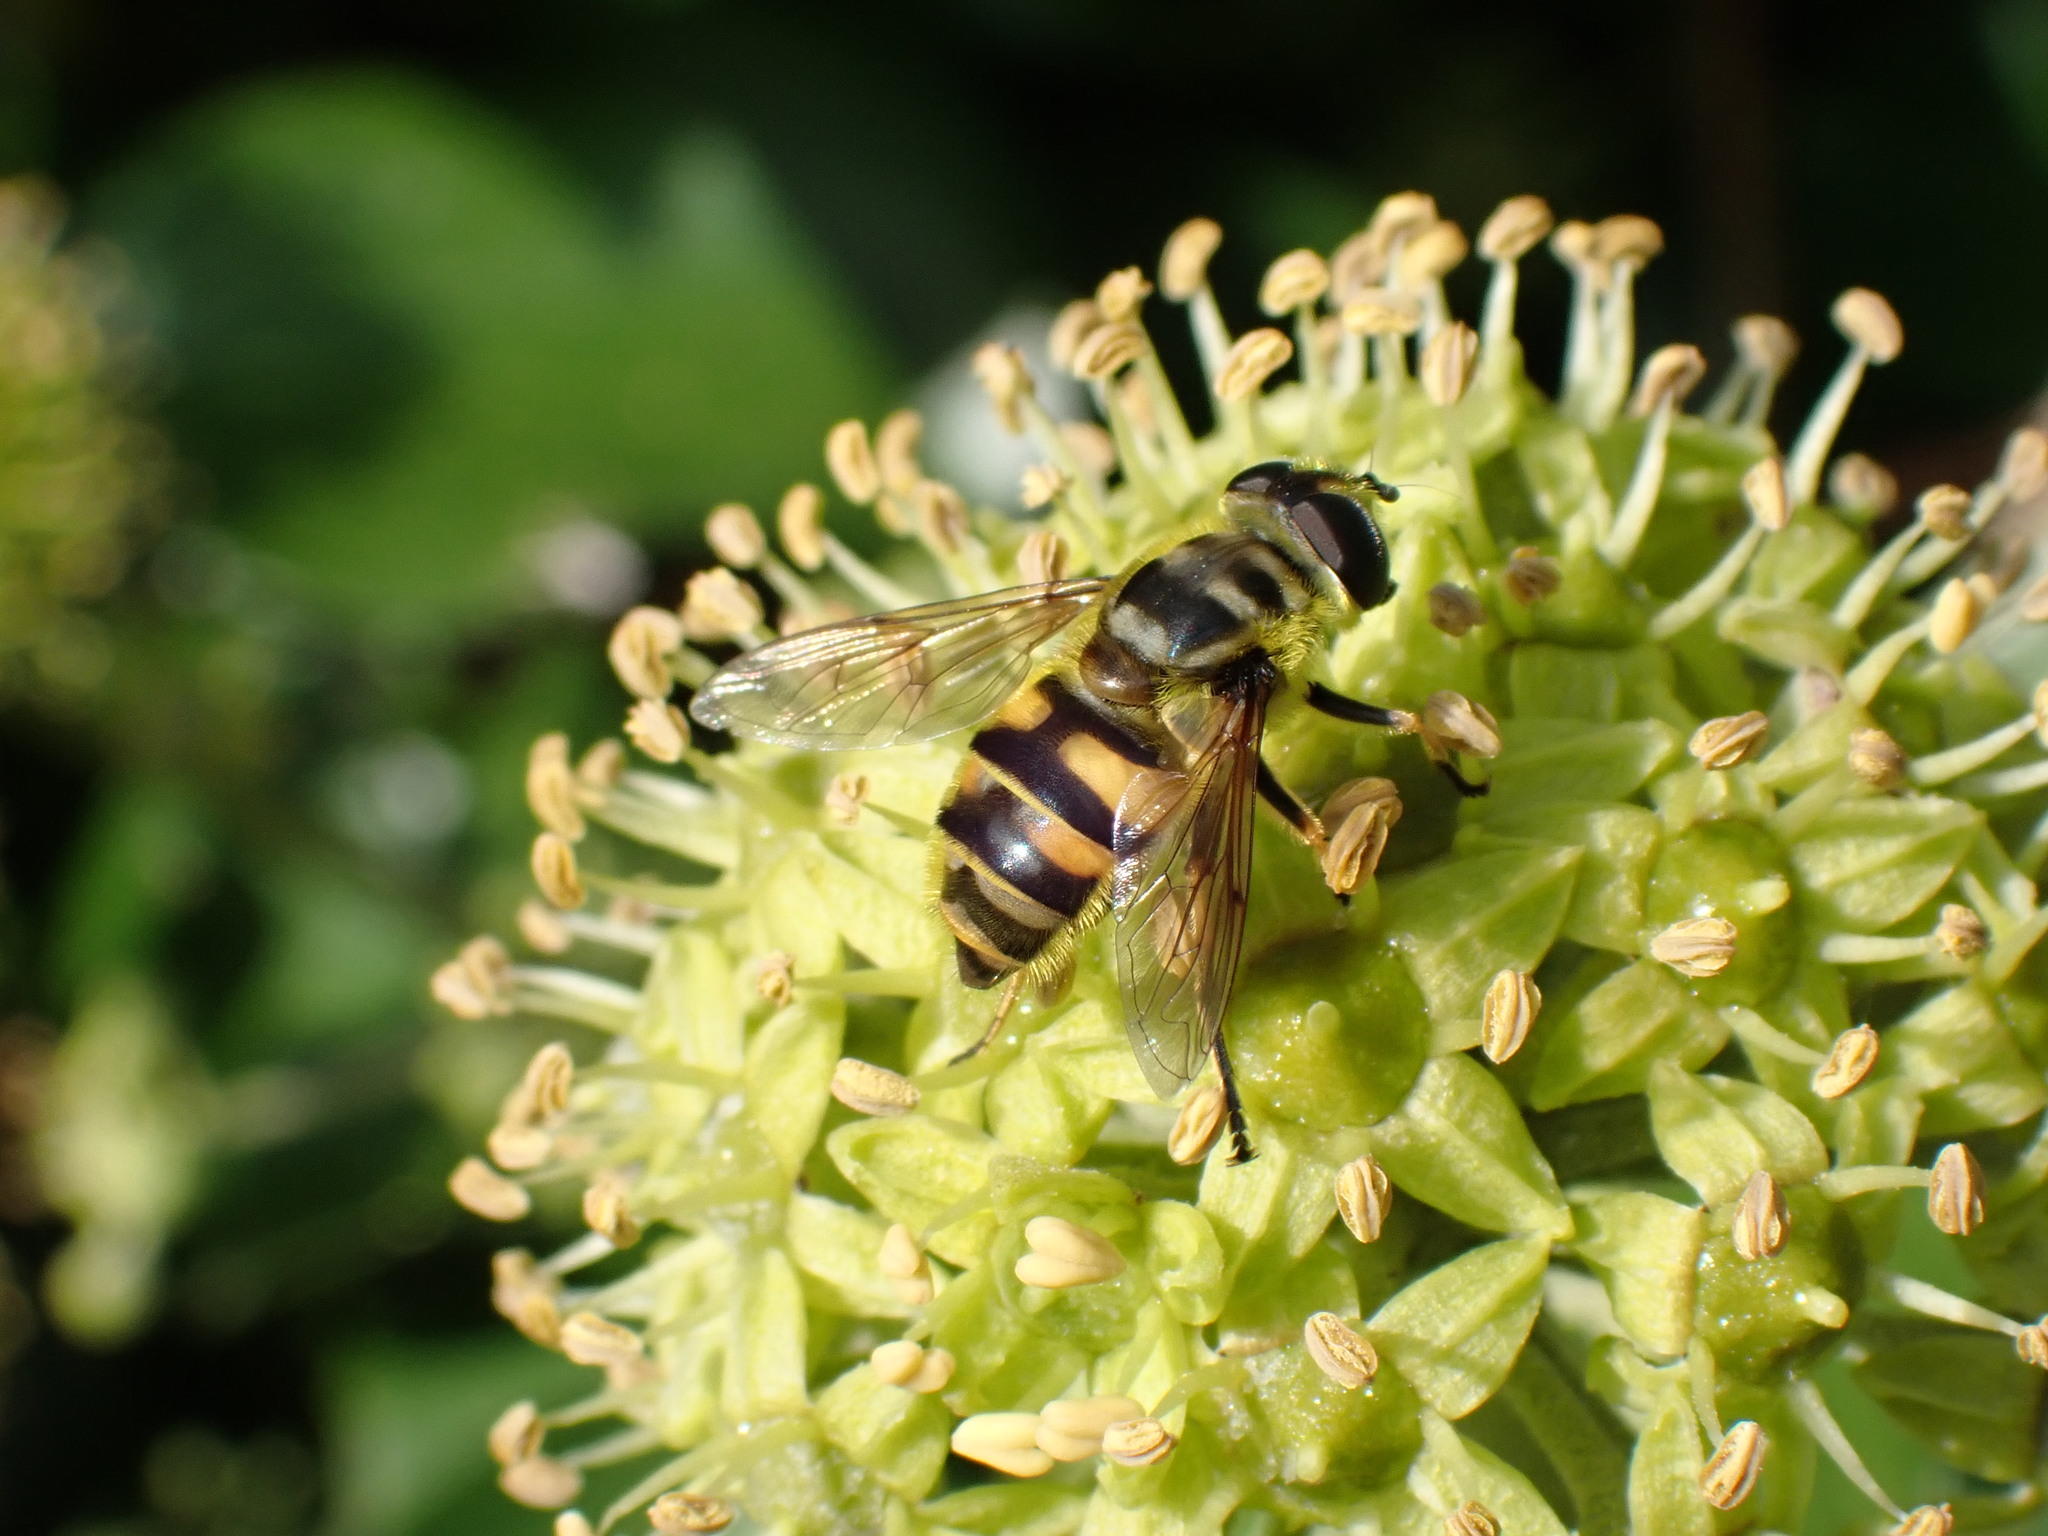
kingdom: Animalia
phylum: Arthropoda
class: Insecta
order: Diptera
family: Syrphidae
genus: Myathropa
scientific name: Myathropa florea
